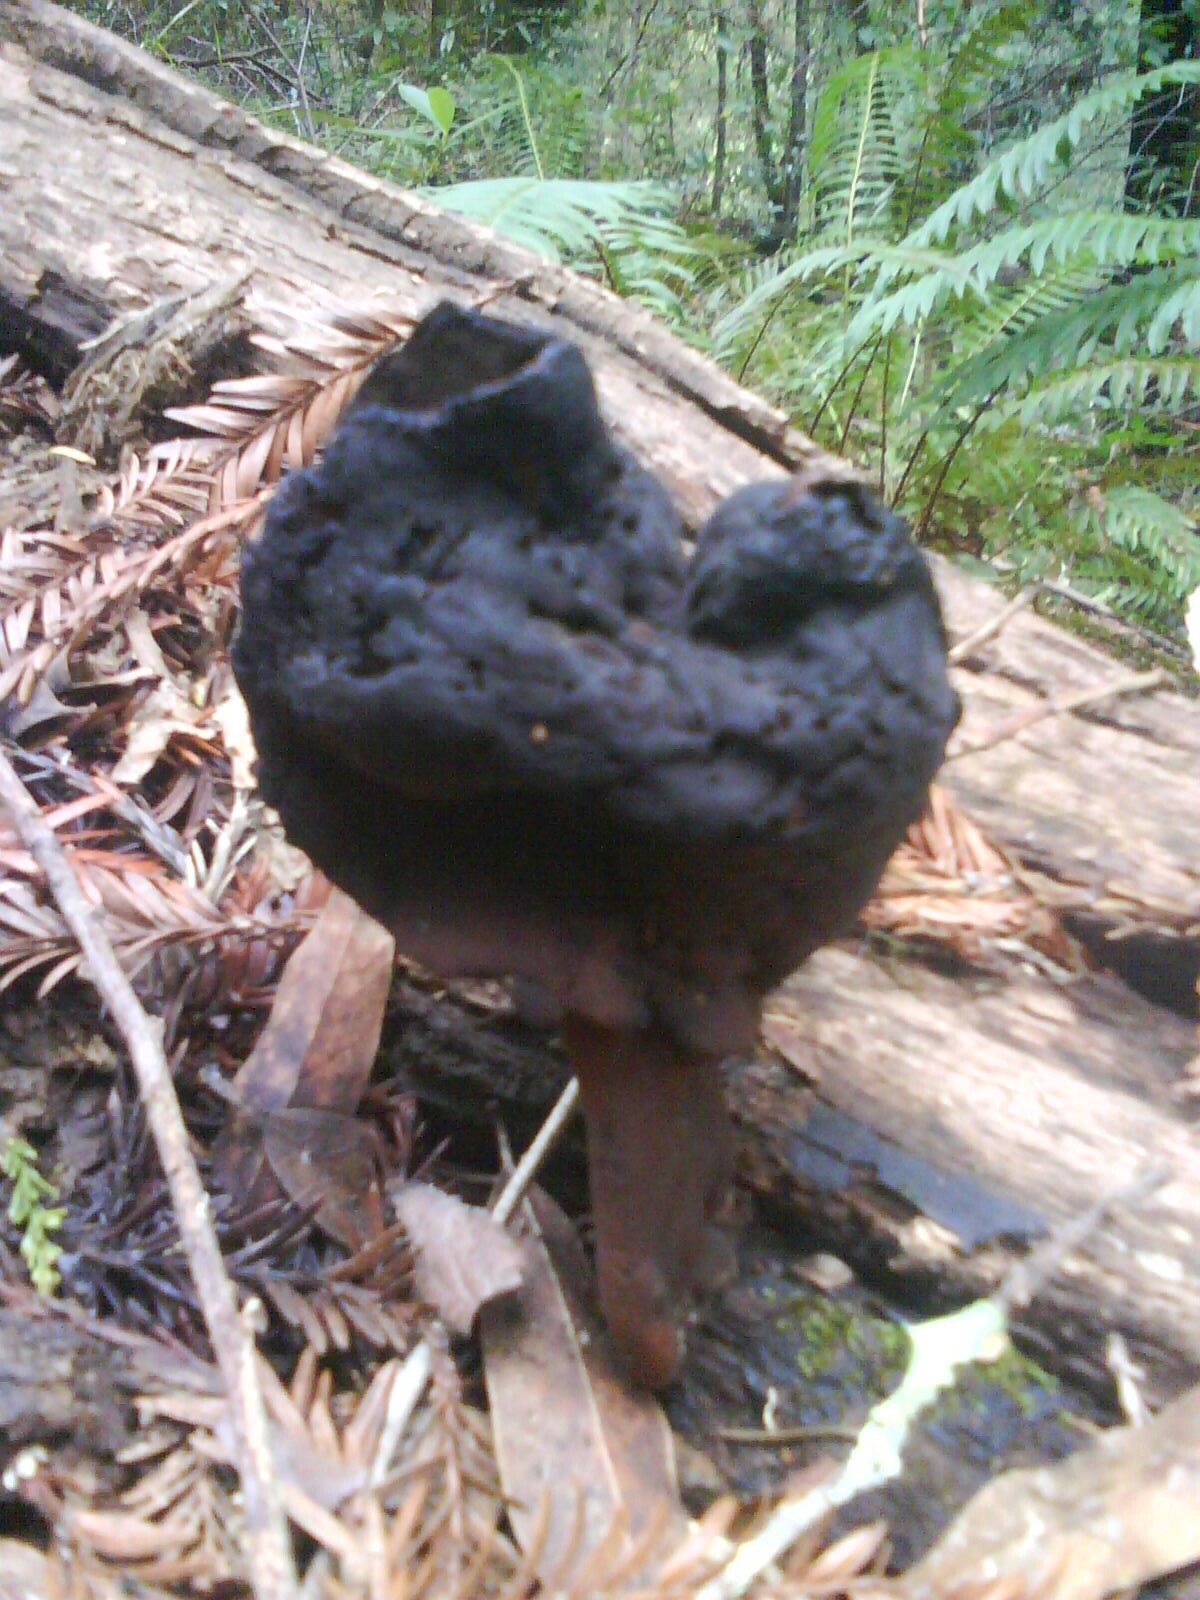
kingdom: Fungi
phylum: Ascomycota
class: Pezizomycetes
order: Pezizales
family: Discinaceae
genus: Gyromitra
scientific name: Gyromitra infula
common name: Pouched false morel
